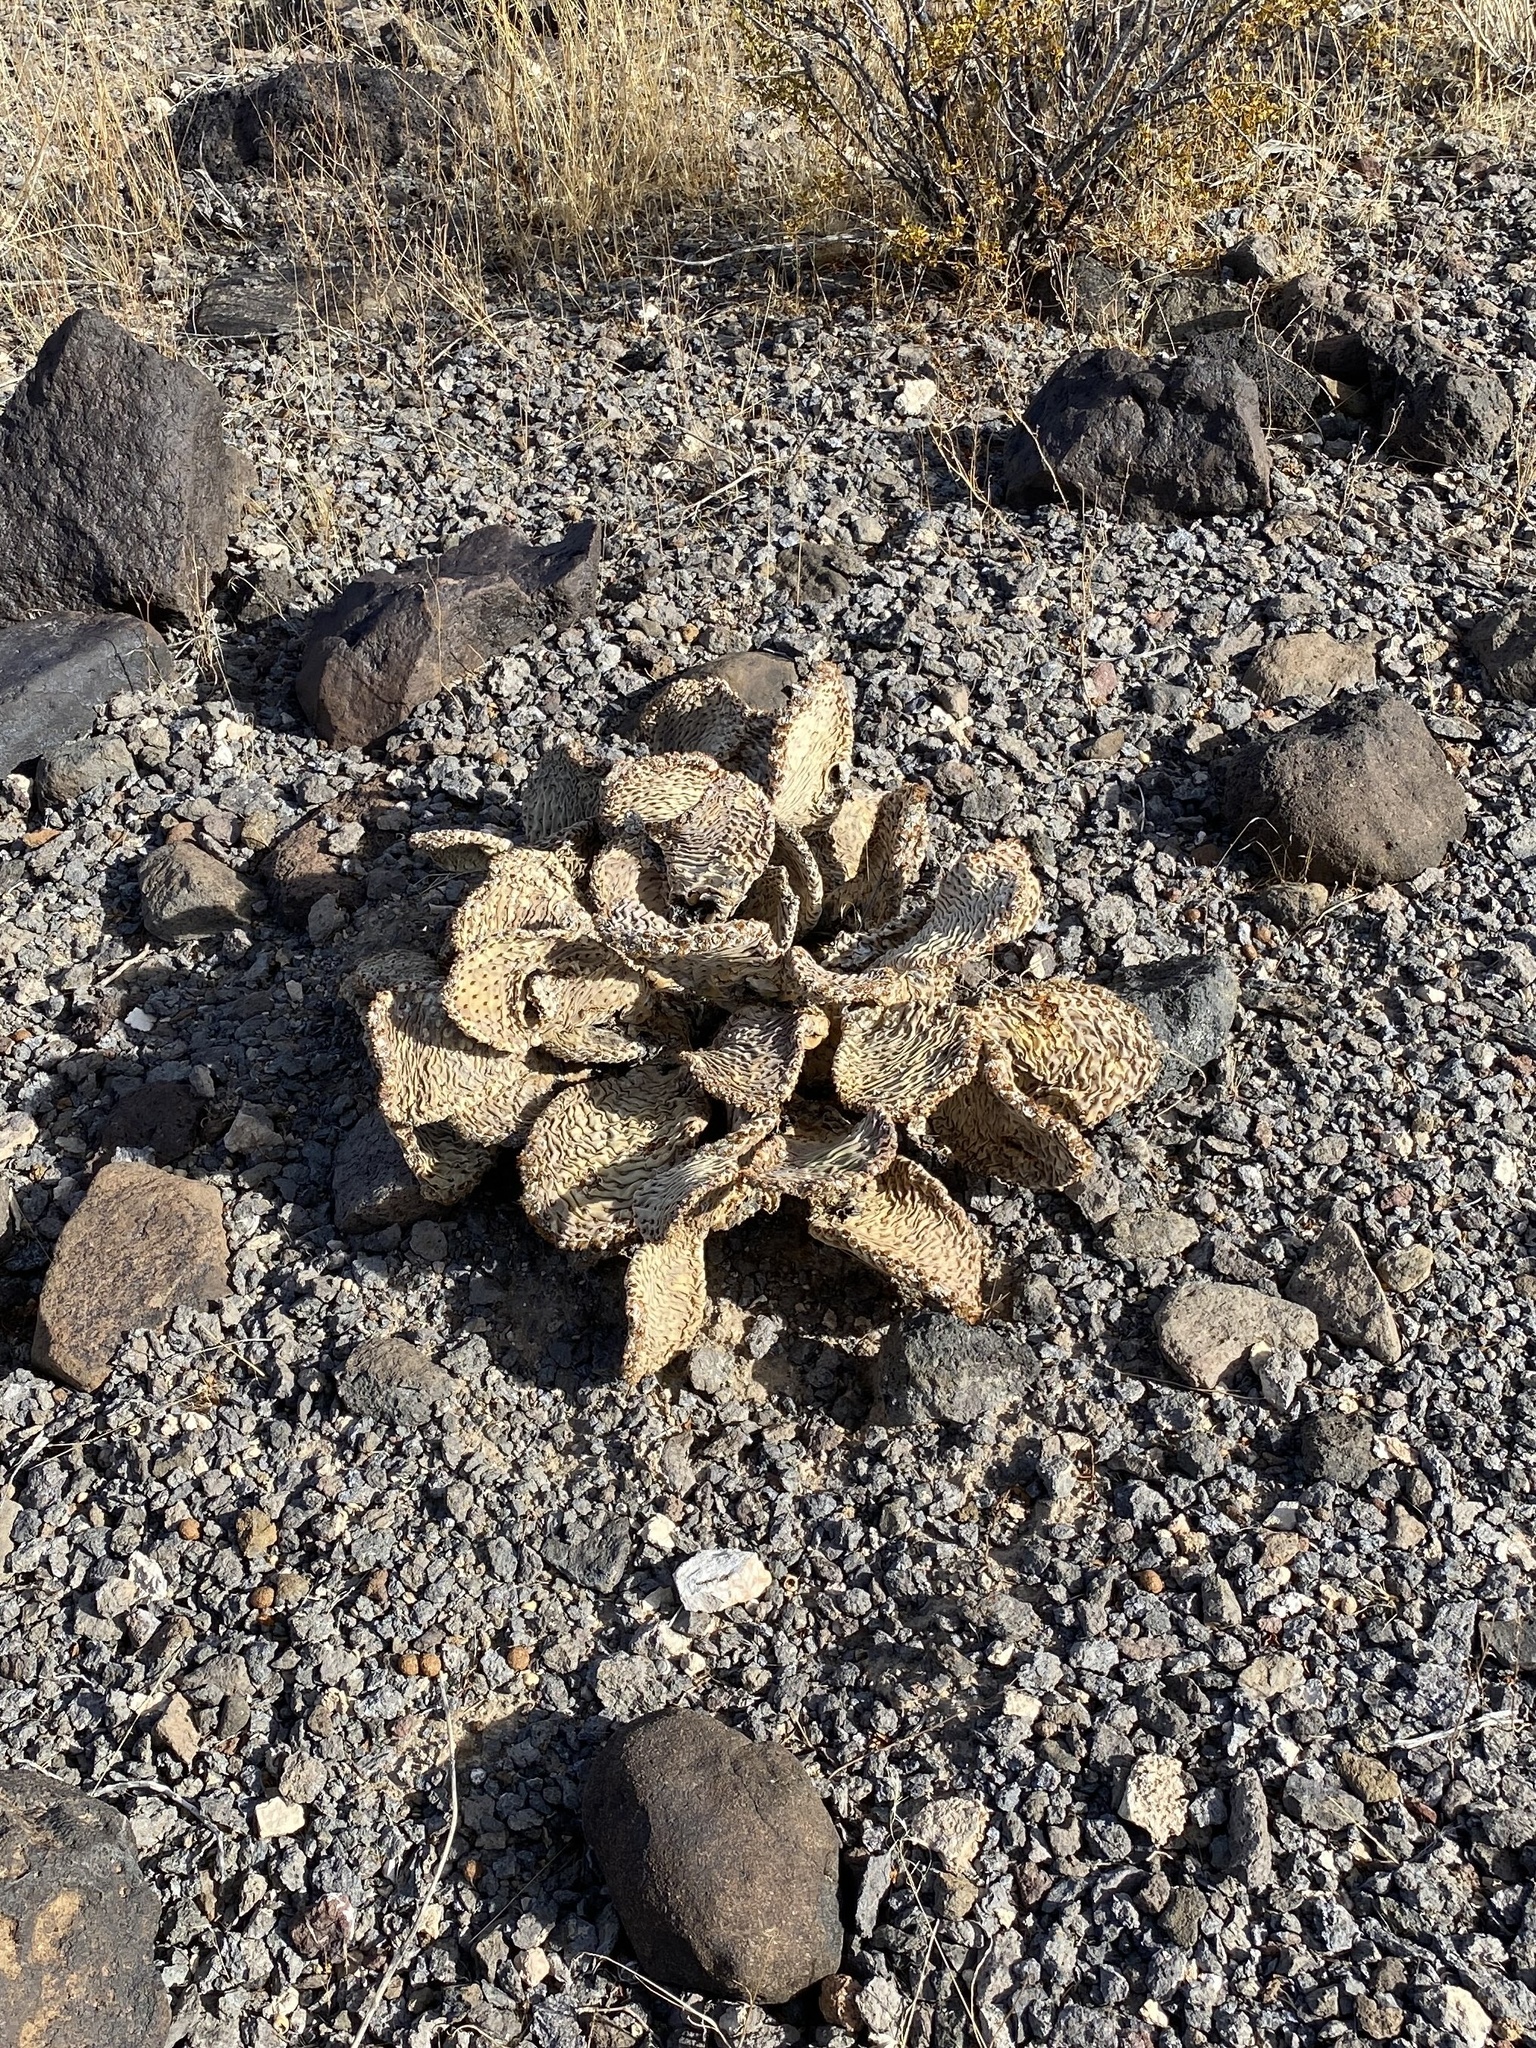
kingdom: Plantae
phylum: Tracheophyta
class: Magnoliopsida
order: Caryophyllales
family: Cactaceae
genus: Opuntia
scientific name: Opuntia basilaris
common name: Beavertail prickly-pear
